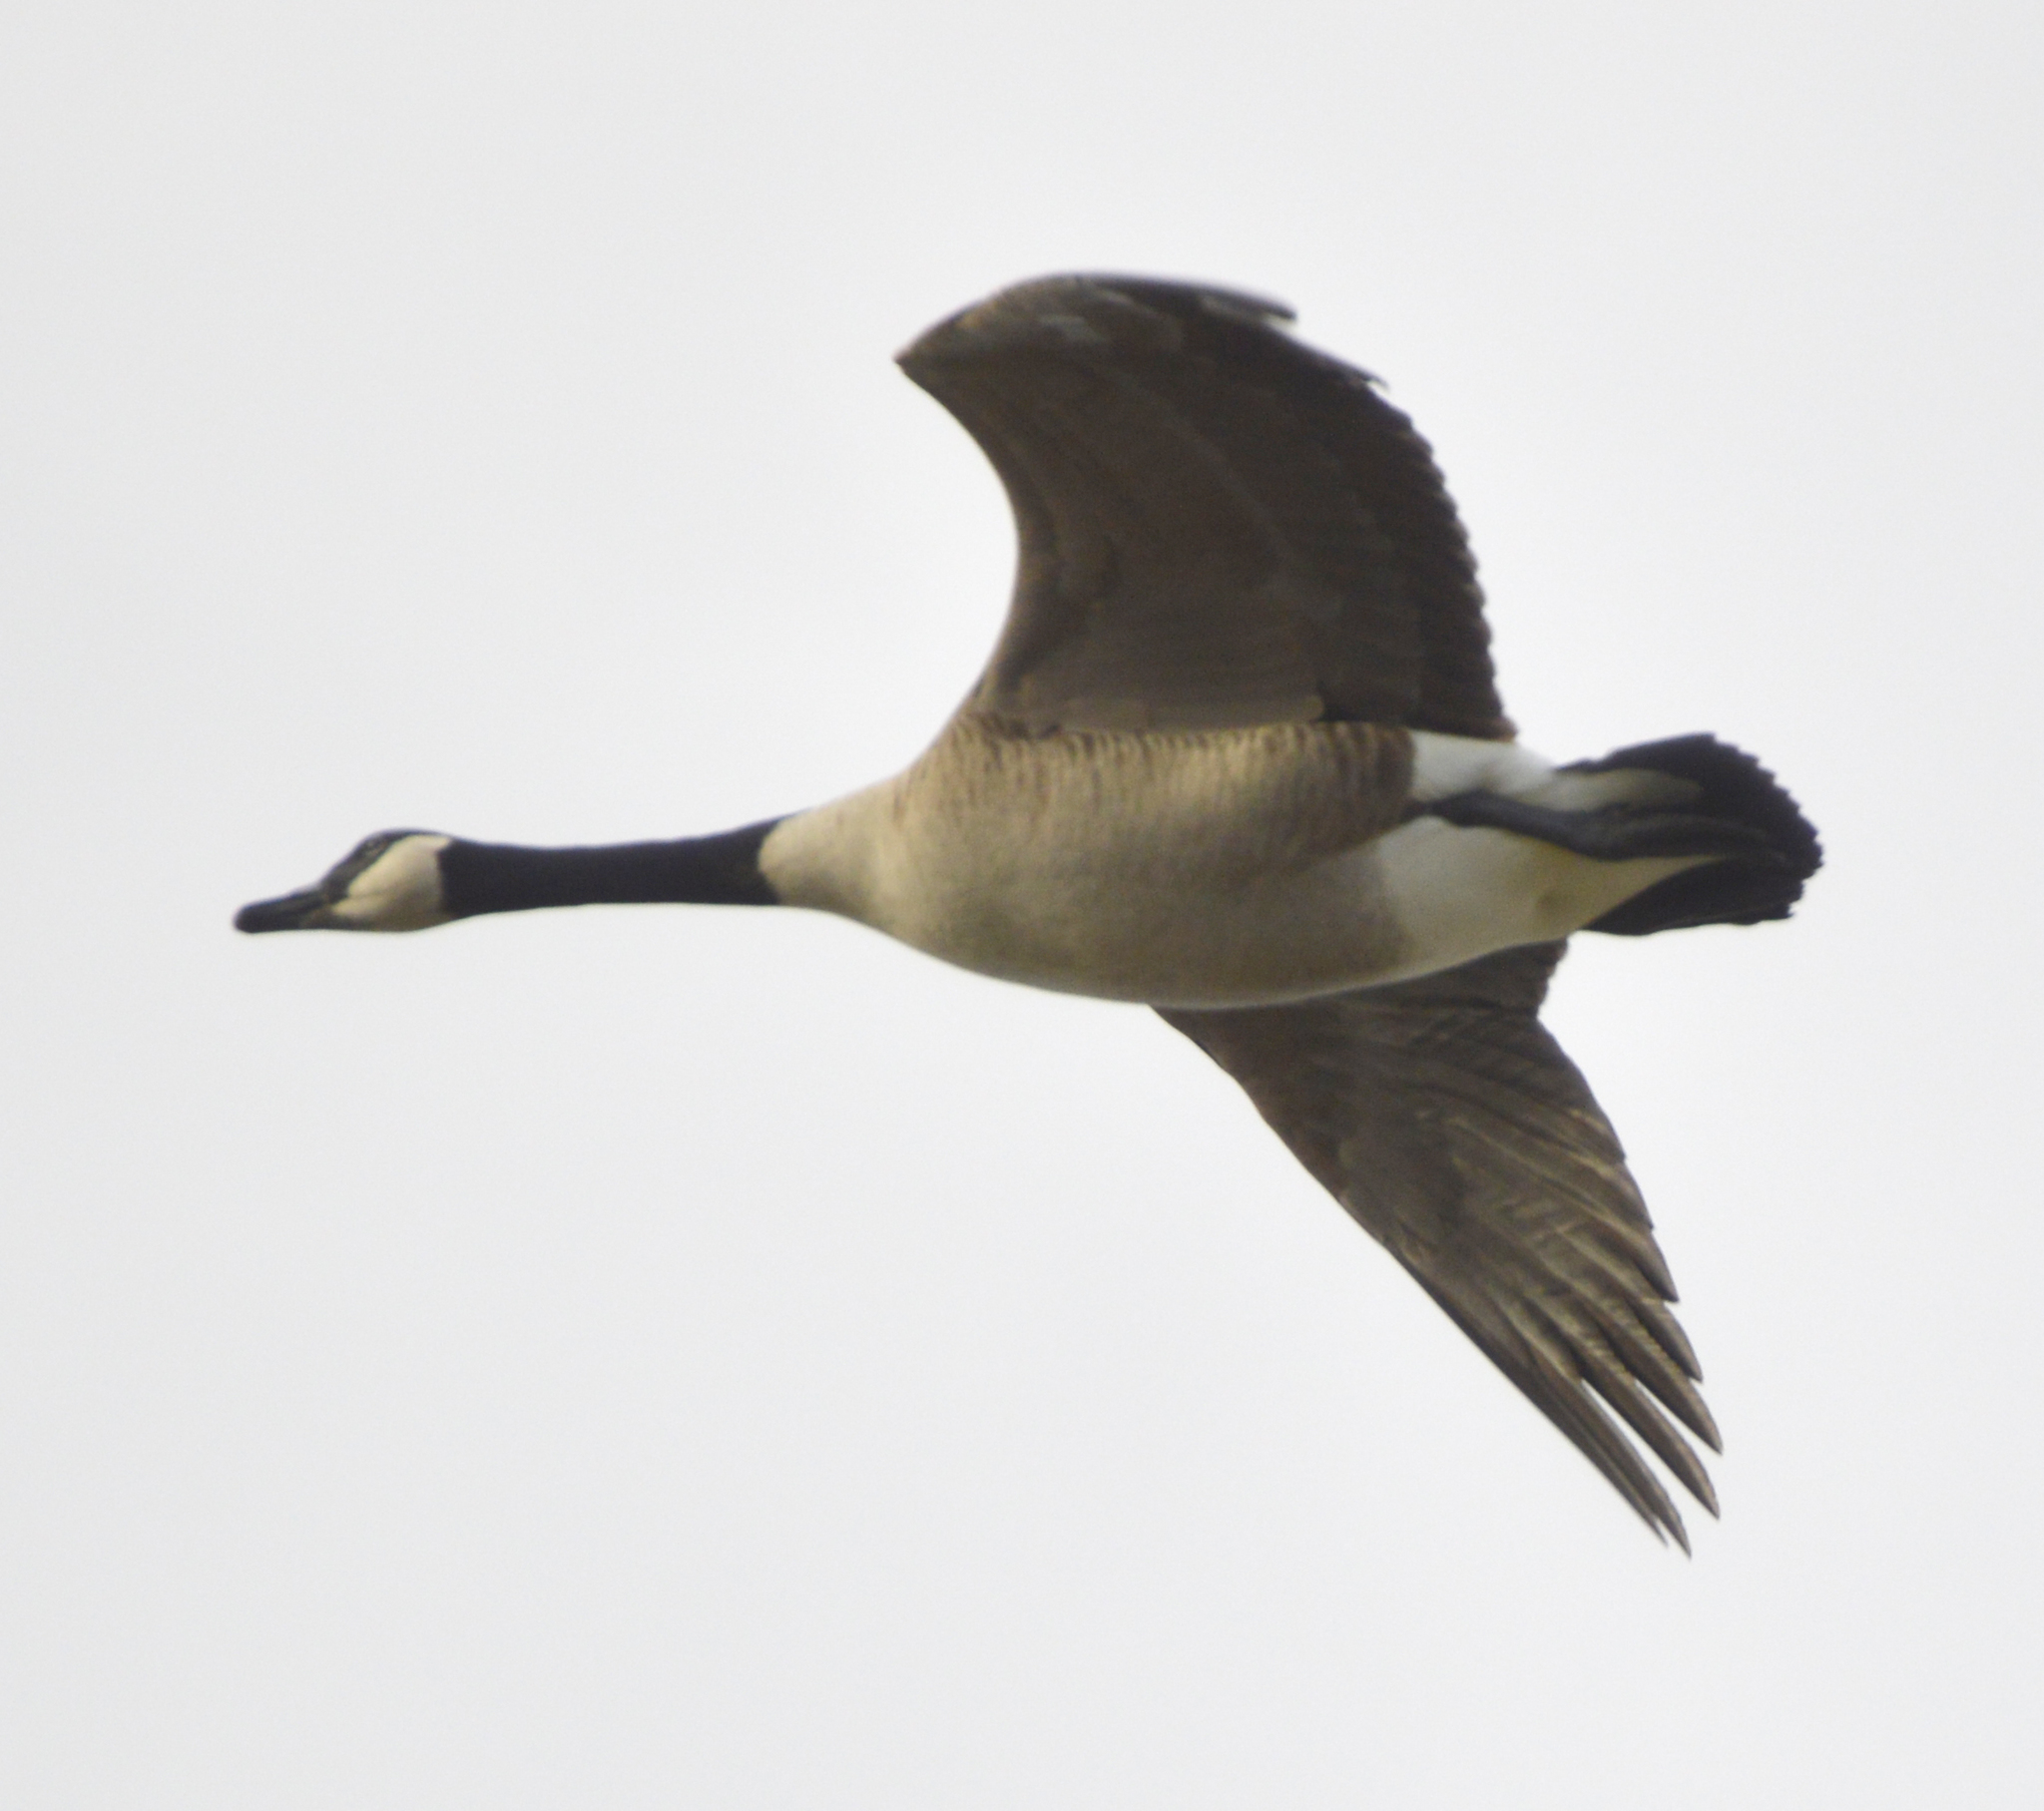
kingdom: Animalia
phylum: Chordata
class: Aves
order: Anseriformes
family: Anatidae
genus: Branta
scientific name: Branta canadensis
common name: Canada goose
